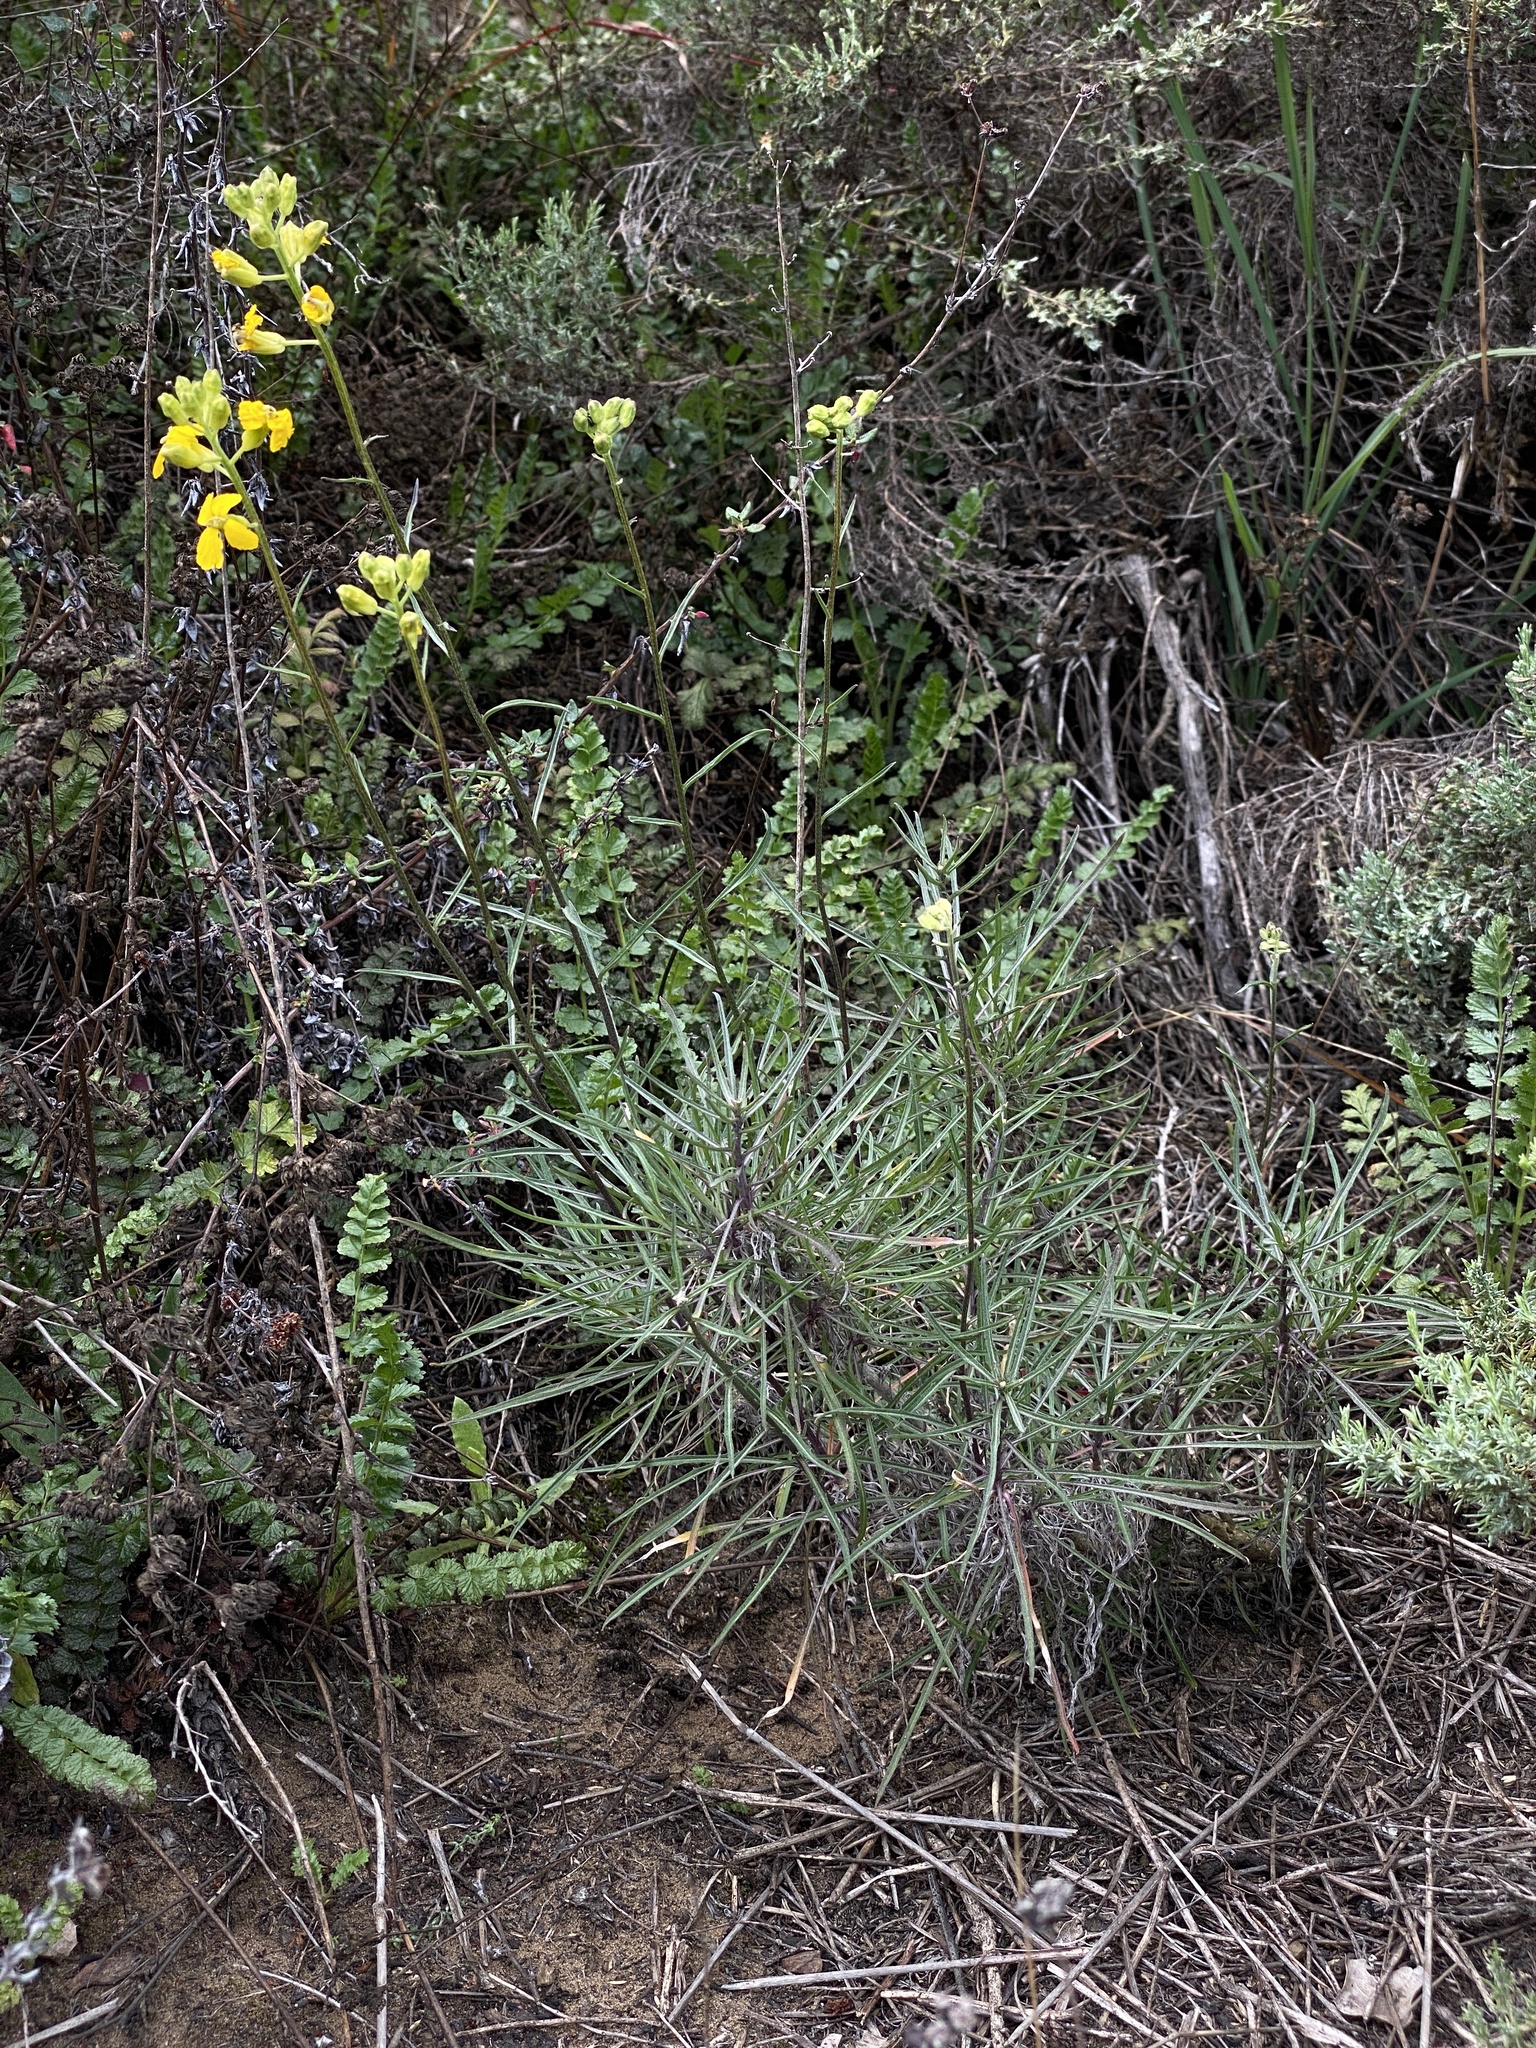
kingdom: Plantae
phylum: Tracheophyta
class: Magnoliopsida
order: Brassicales
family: Brassicaceae
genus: Erysimum
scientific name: Erysimum suffrutescens
